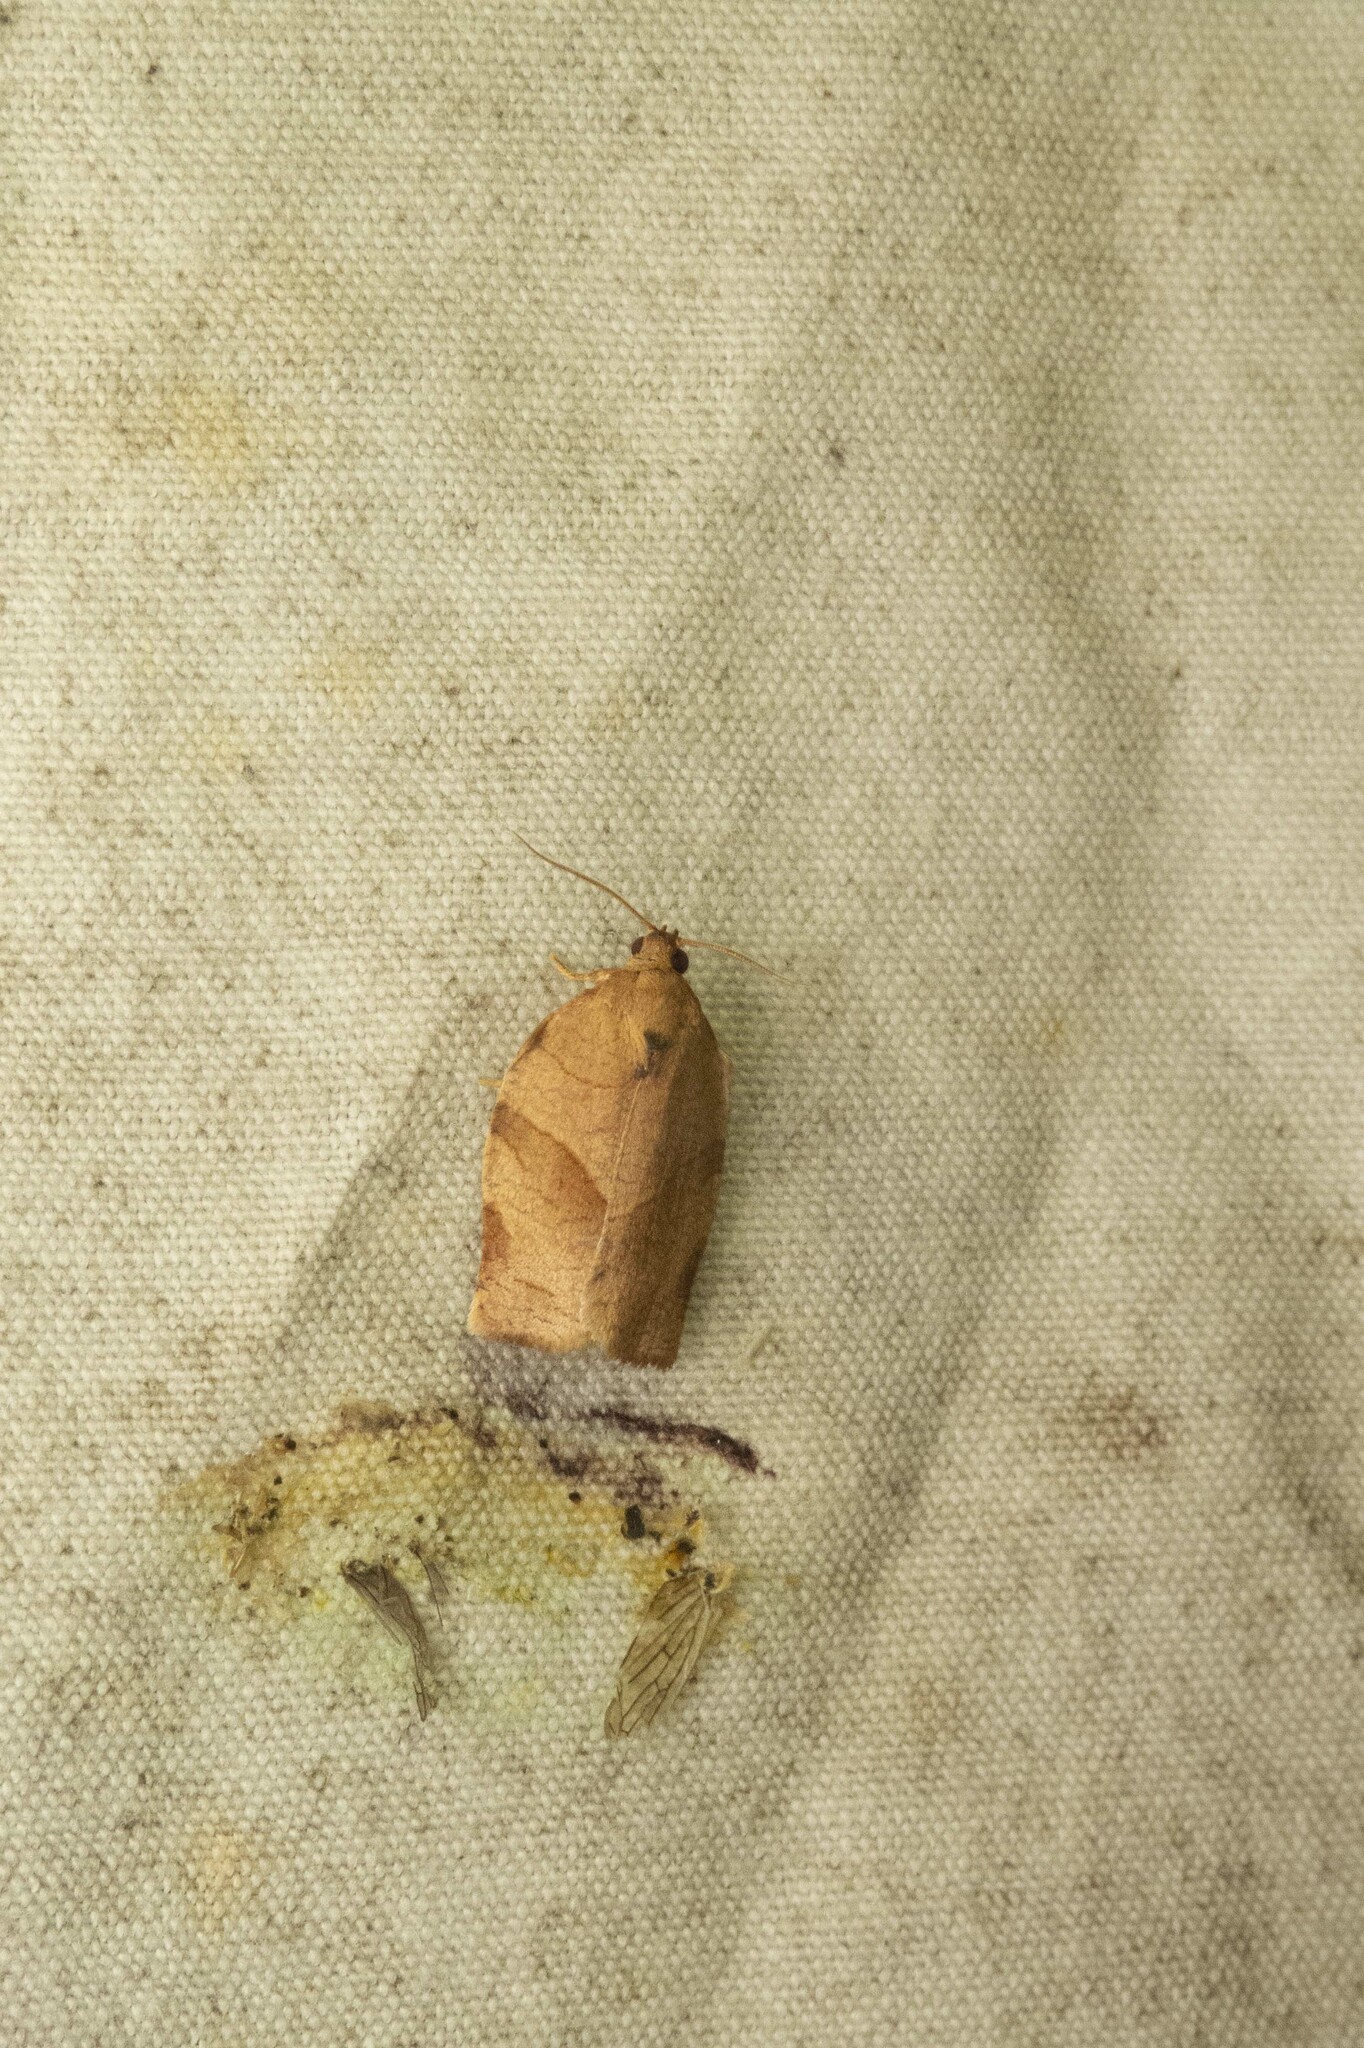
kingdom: Animalia
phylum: Arthropoda
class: Insecta
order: Lepidoptera
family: Tortricidae
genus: Choristoneura
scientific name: Choristoneura rosaceana
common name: Oblique-banded leafroller moth
